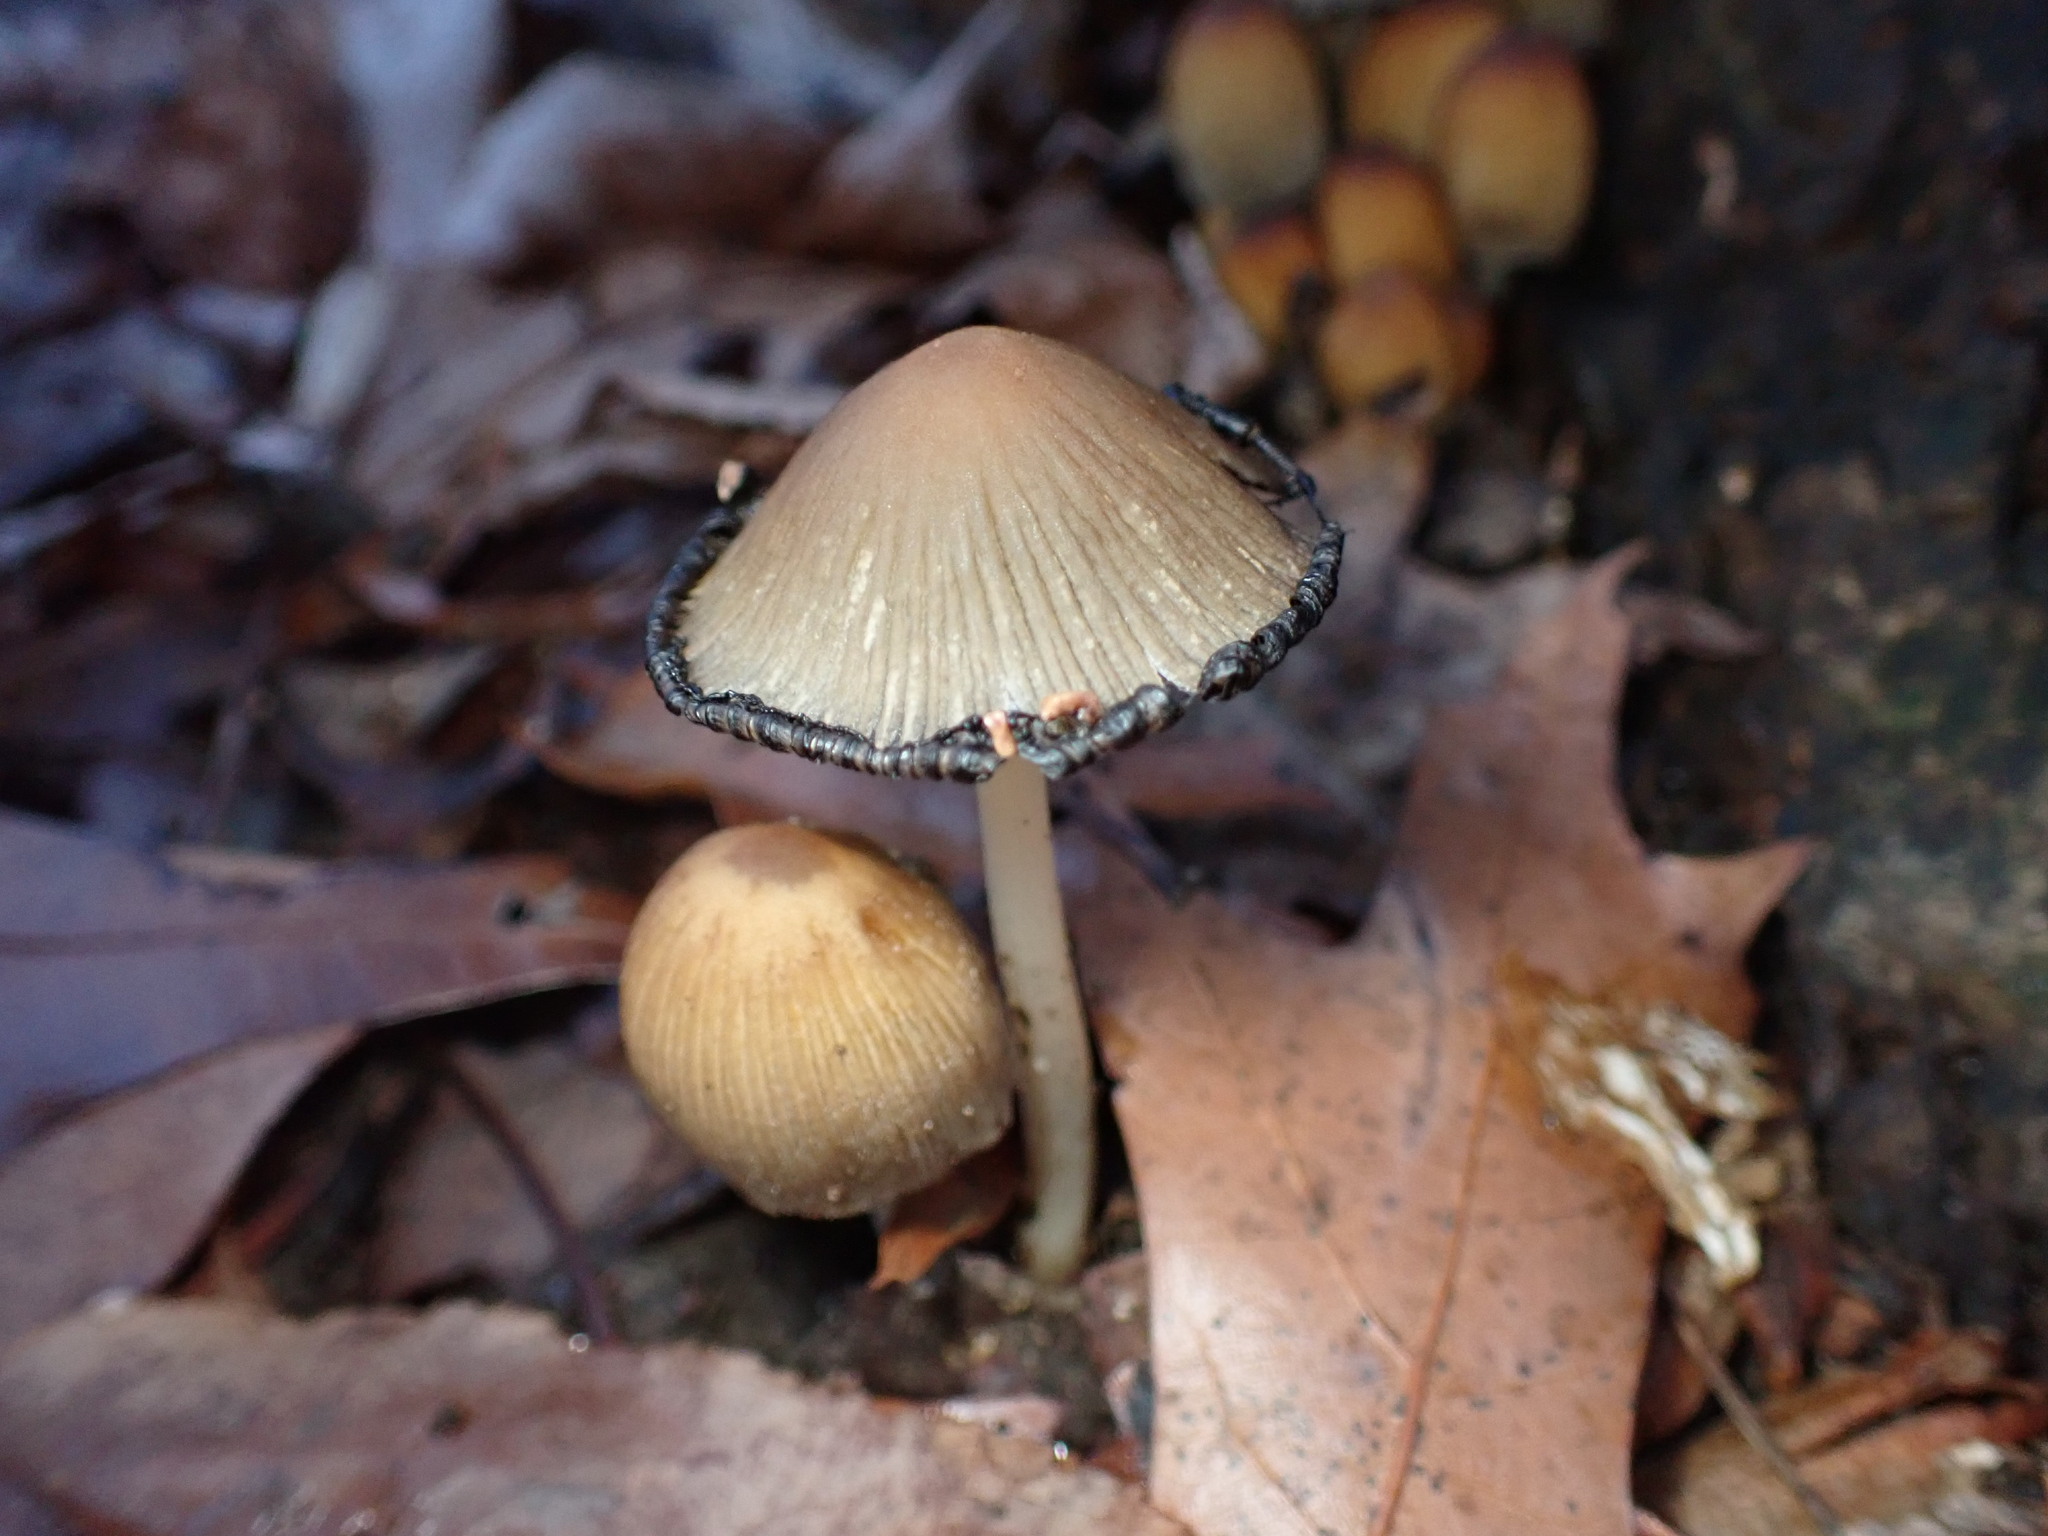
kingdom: Fungi
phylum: Basidiomycota
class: Agaricomycetes
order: Agaricales
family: Psathyrellaceae
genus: Coprinopsis
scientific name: Coprinopsis atramentaria
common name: Common ink-cap
